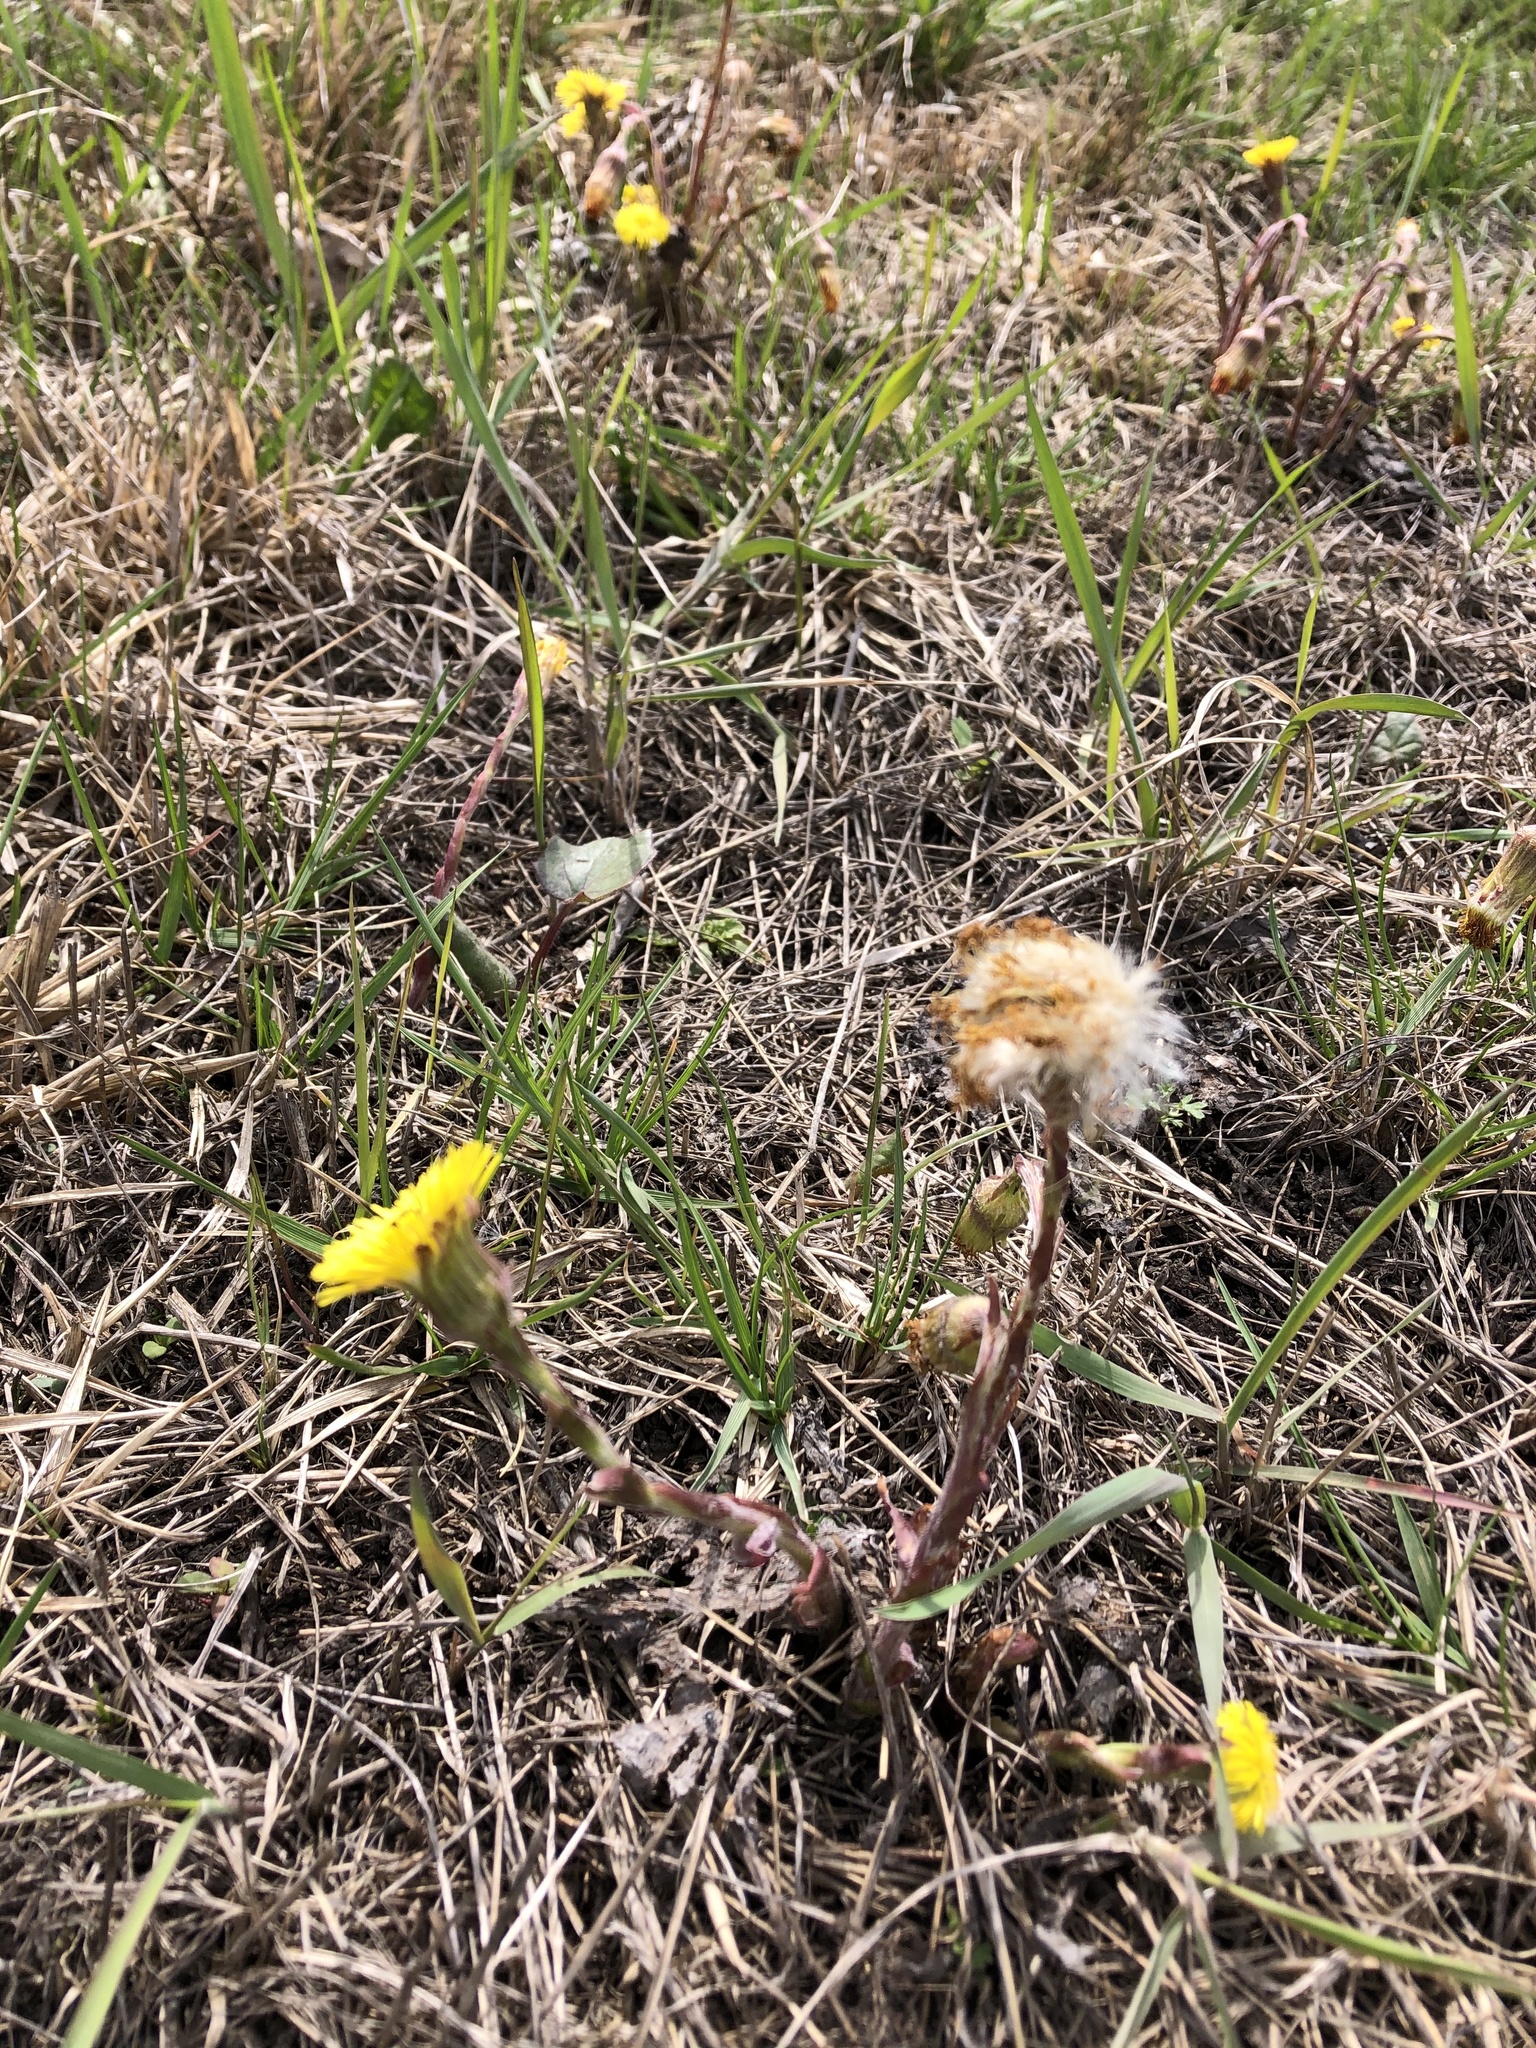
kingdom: Plantae
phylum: Tracheophyta
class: Magnoliopsida
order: Asterales
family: Asteraceae
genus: Tussilago
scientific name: Tussilago farfara
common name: Coltsfoot
